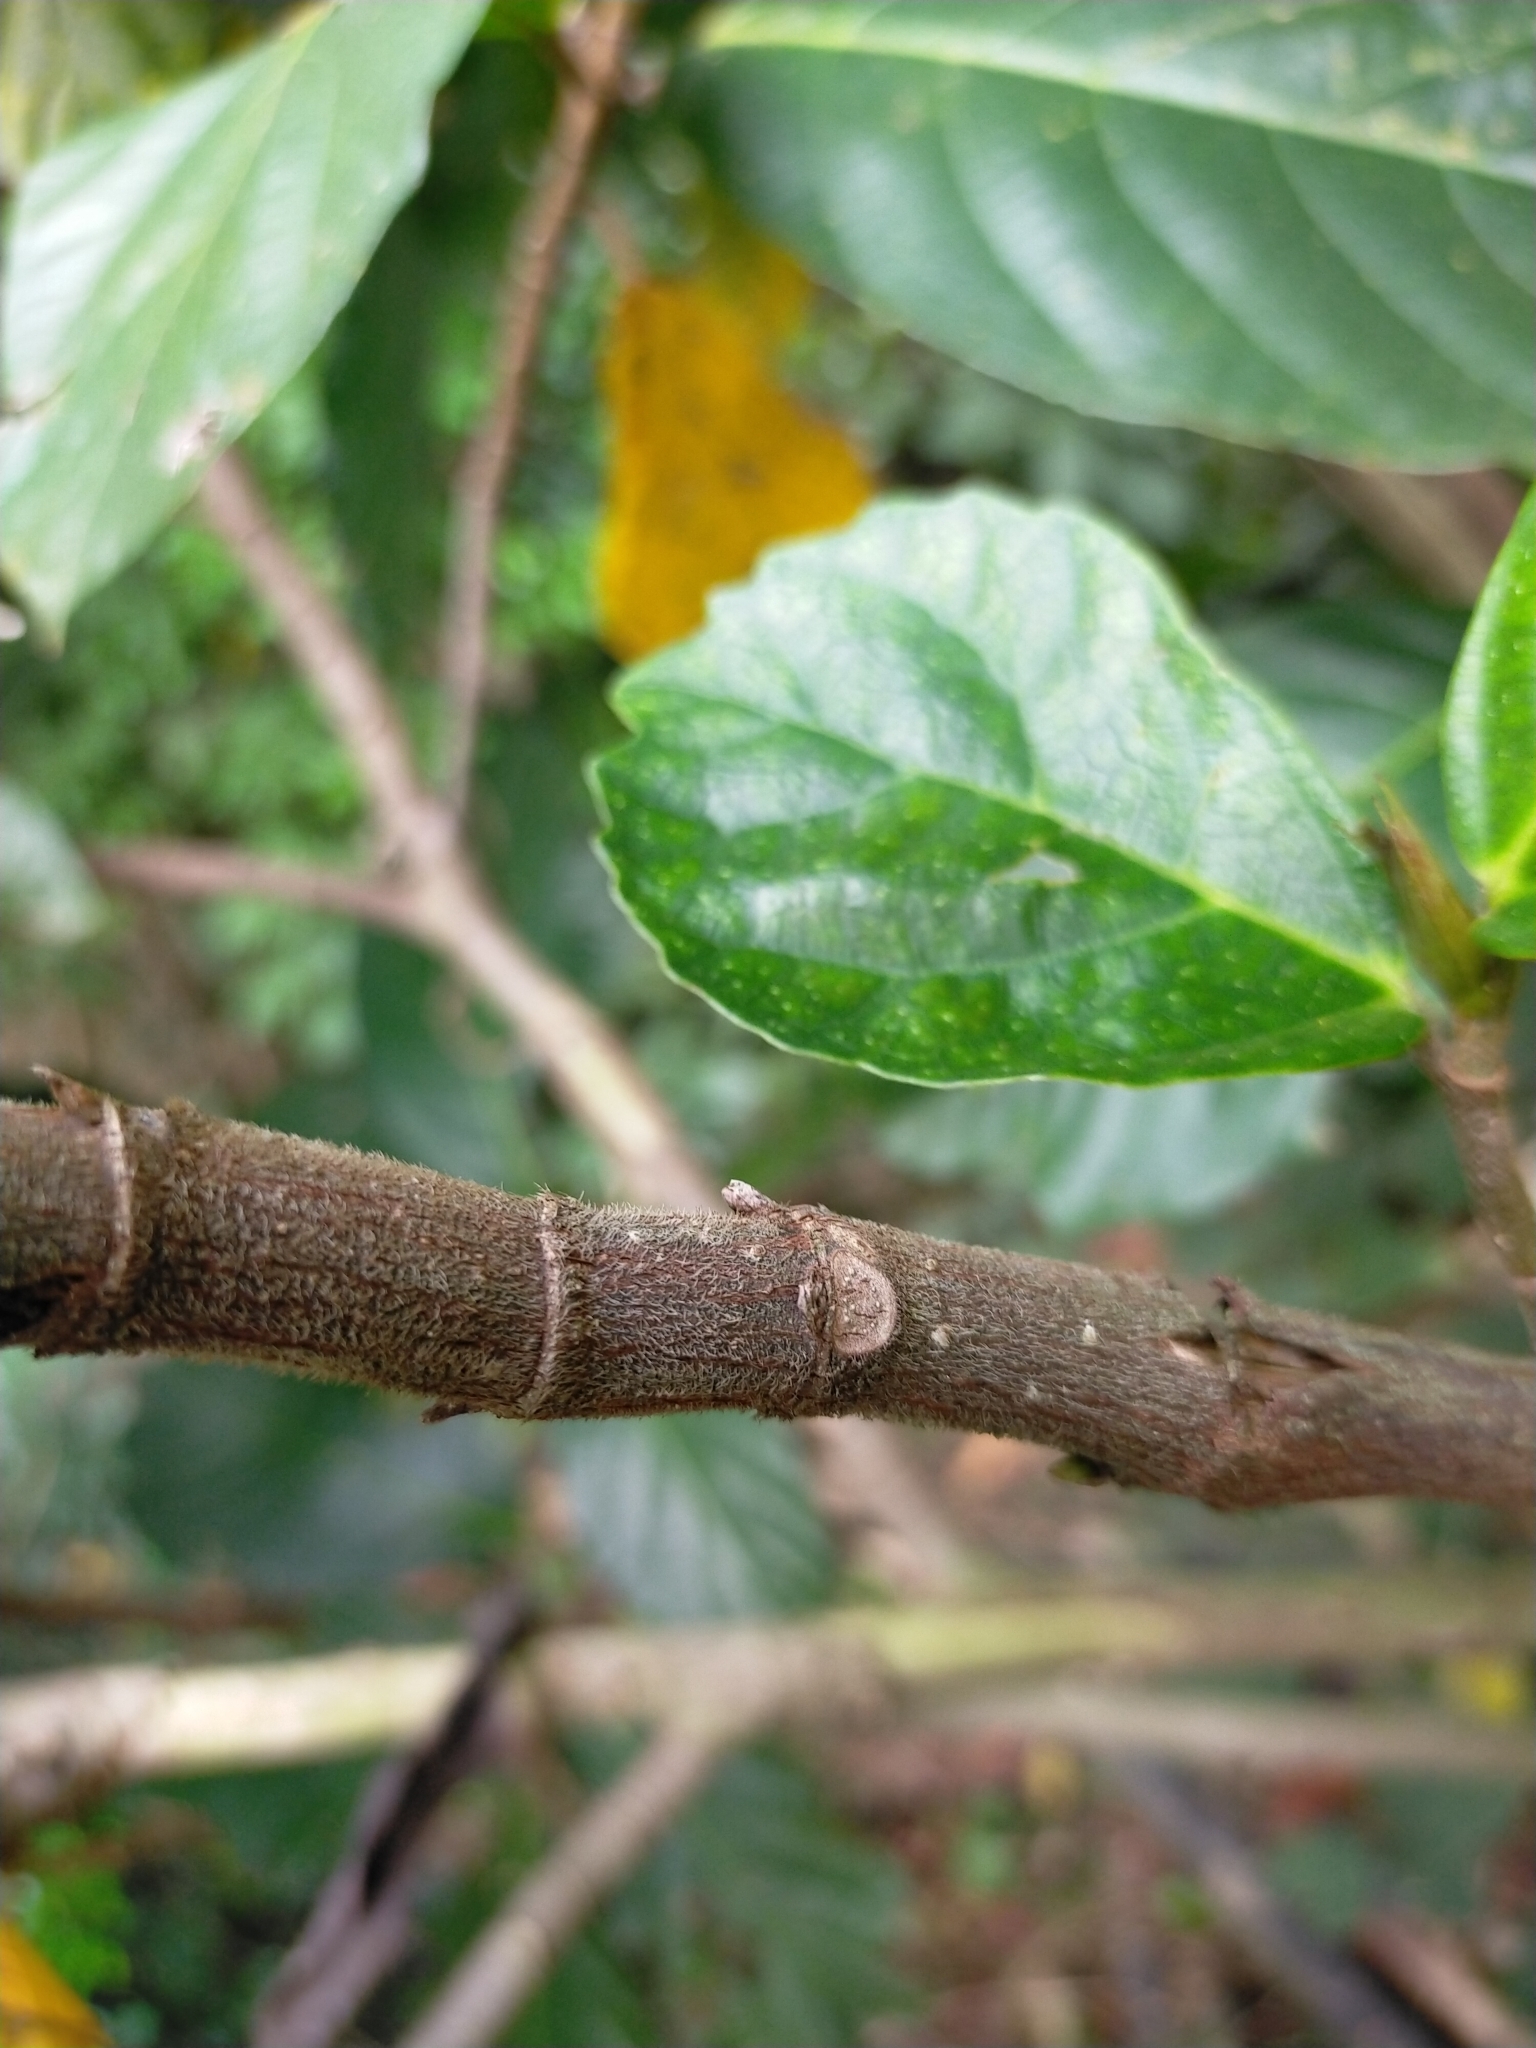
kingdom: Plantae
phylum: Tracheophyta
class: Magnoliopsida
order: Rosales
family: Moraceae
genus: Ficus
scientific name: Ficus benguetensis
